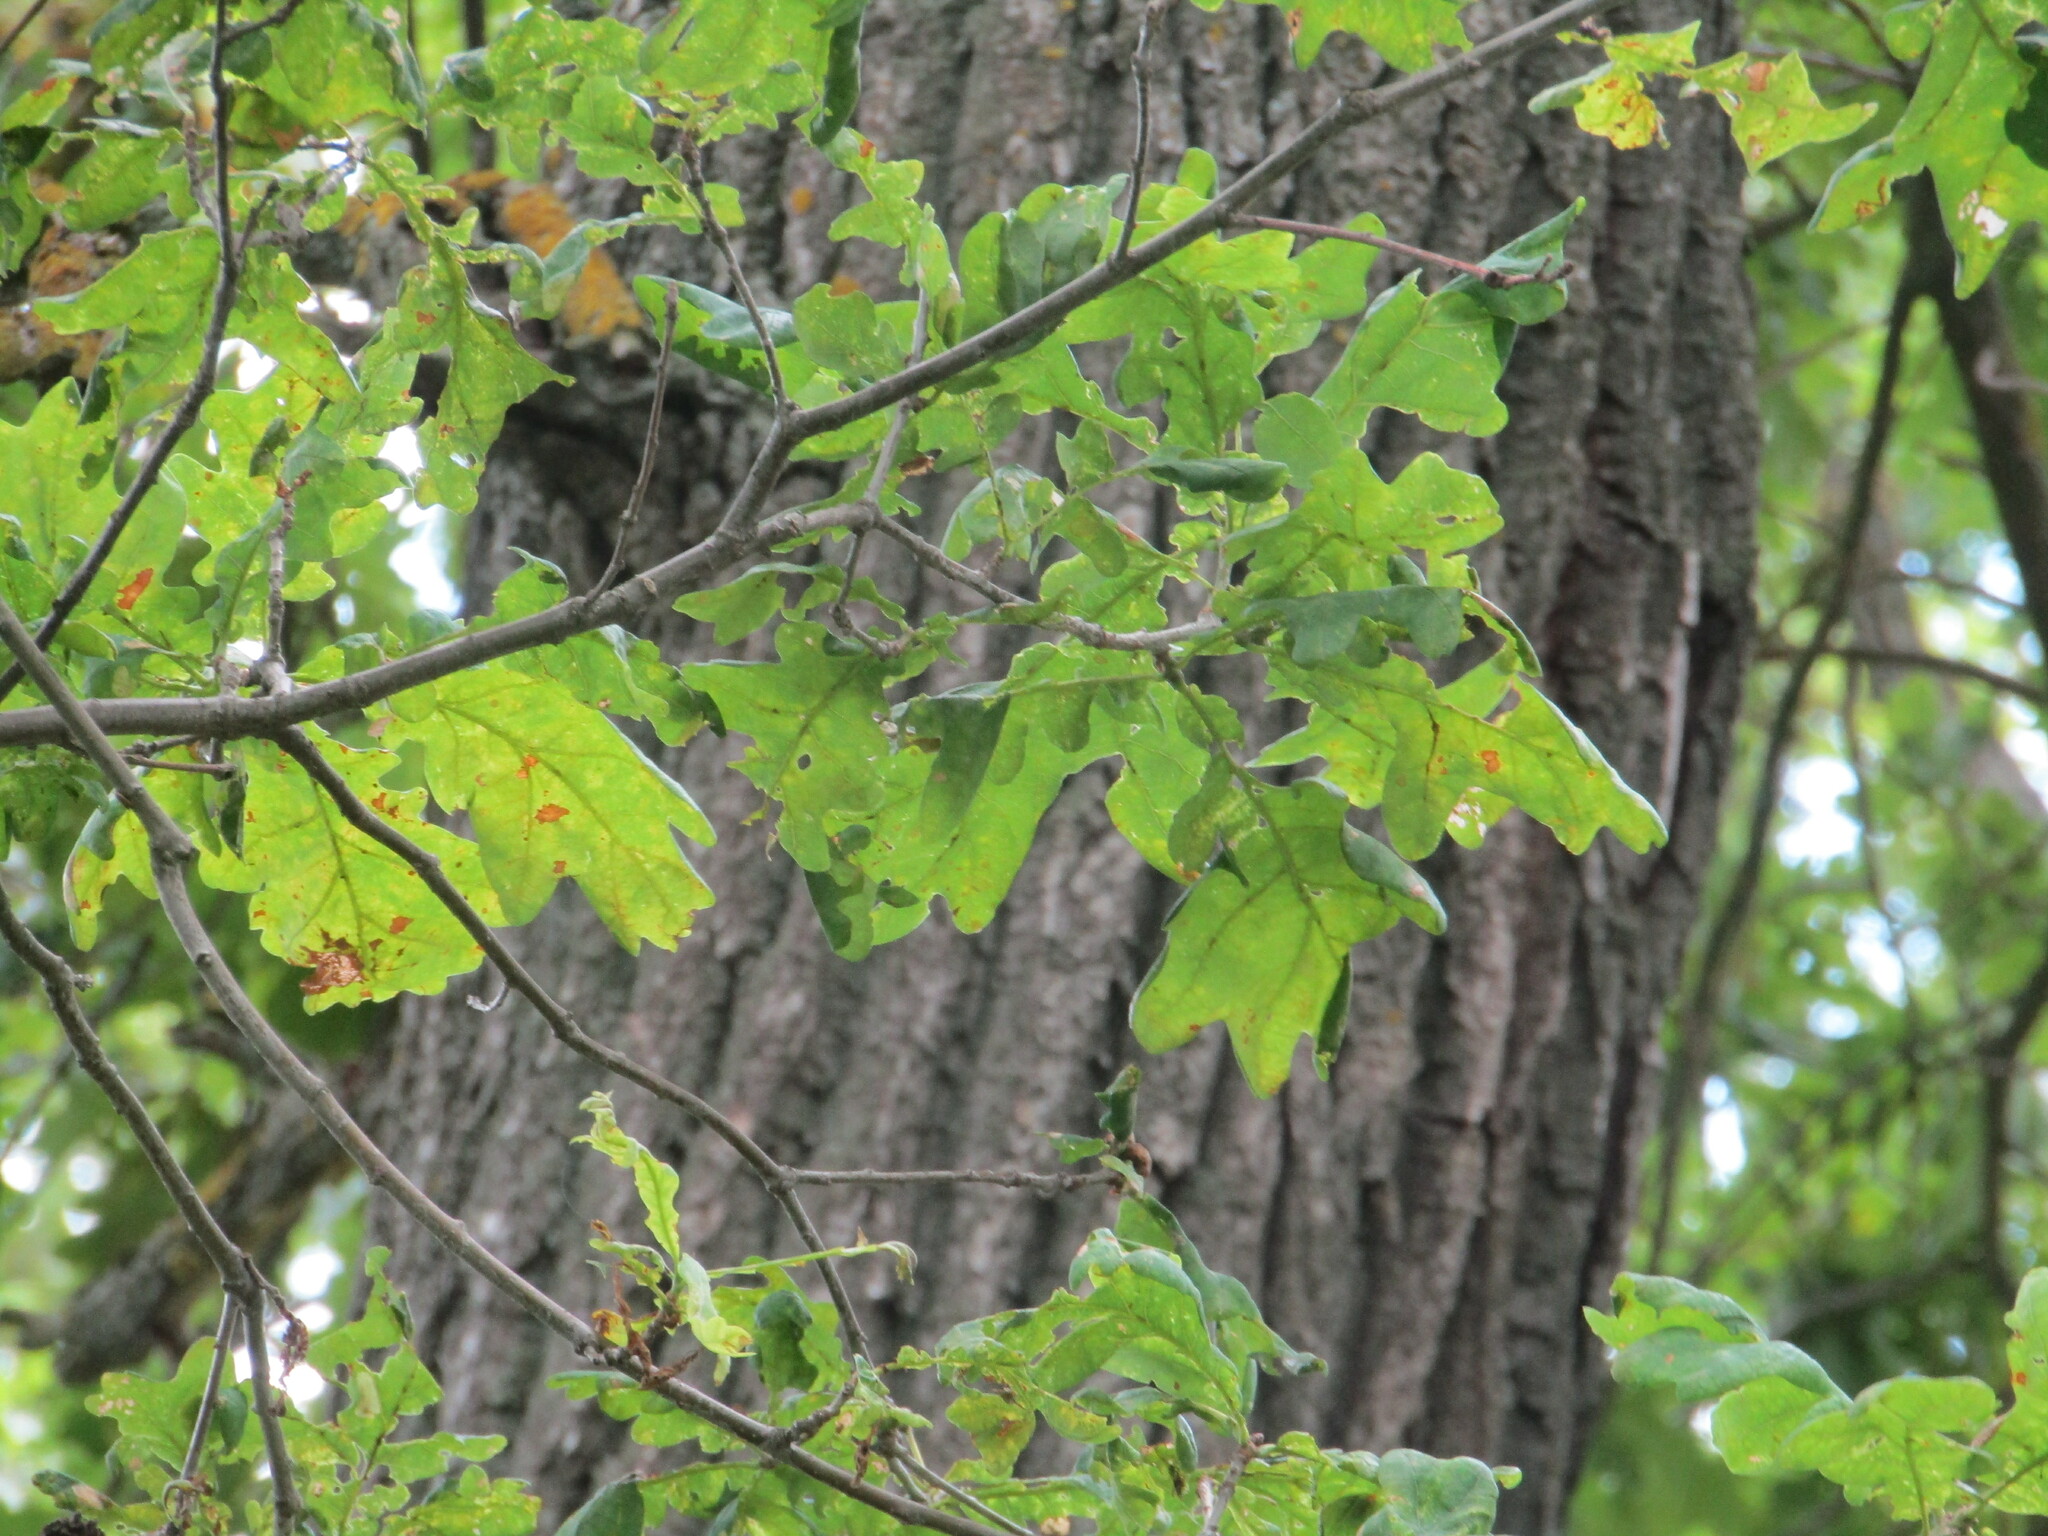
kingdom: Plantae
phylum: Tracheophyta
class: Magnoliopsida
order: Fagales
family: Fagaceae
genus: Quercus
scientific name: Quercus robur
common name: Pedunculate oak
